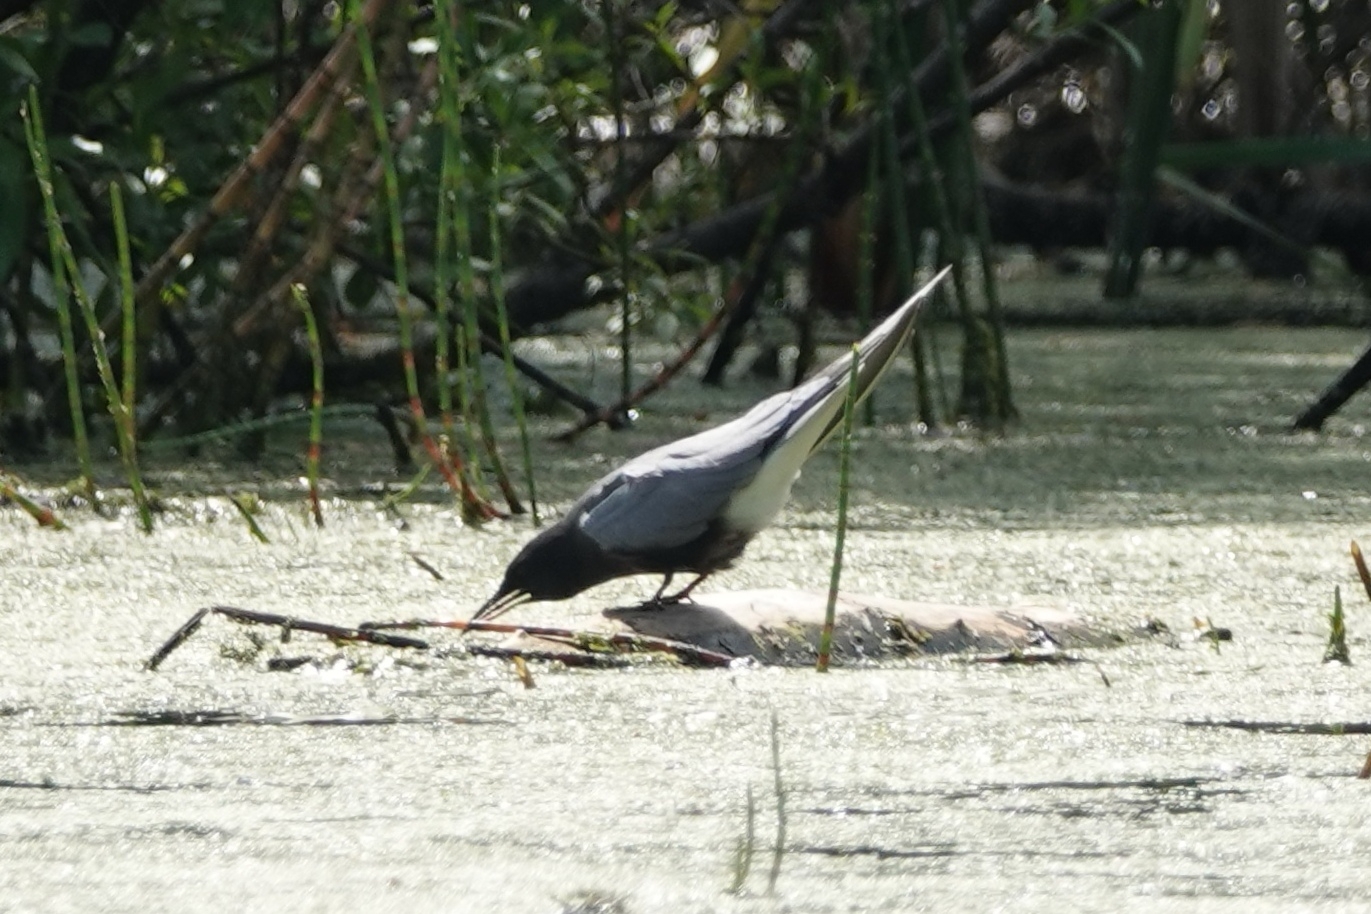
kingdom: Animalia
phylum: Chordata
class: Aves
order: Charadriiformes
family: Laridae
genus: Chlidonias
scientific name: Chlidonias niger
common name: Black tern
